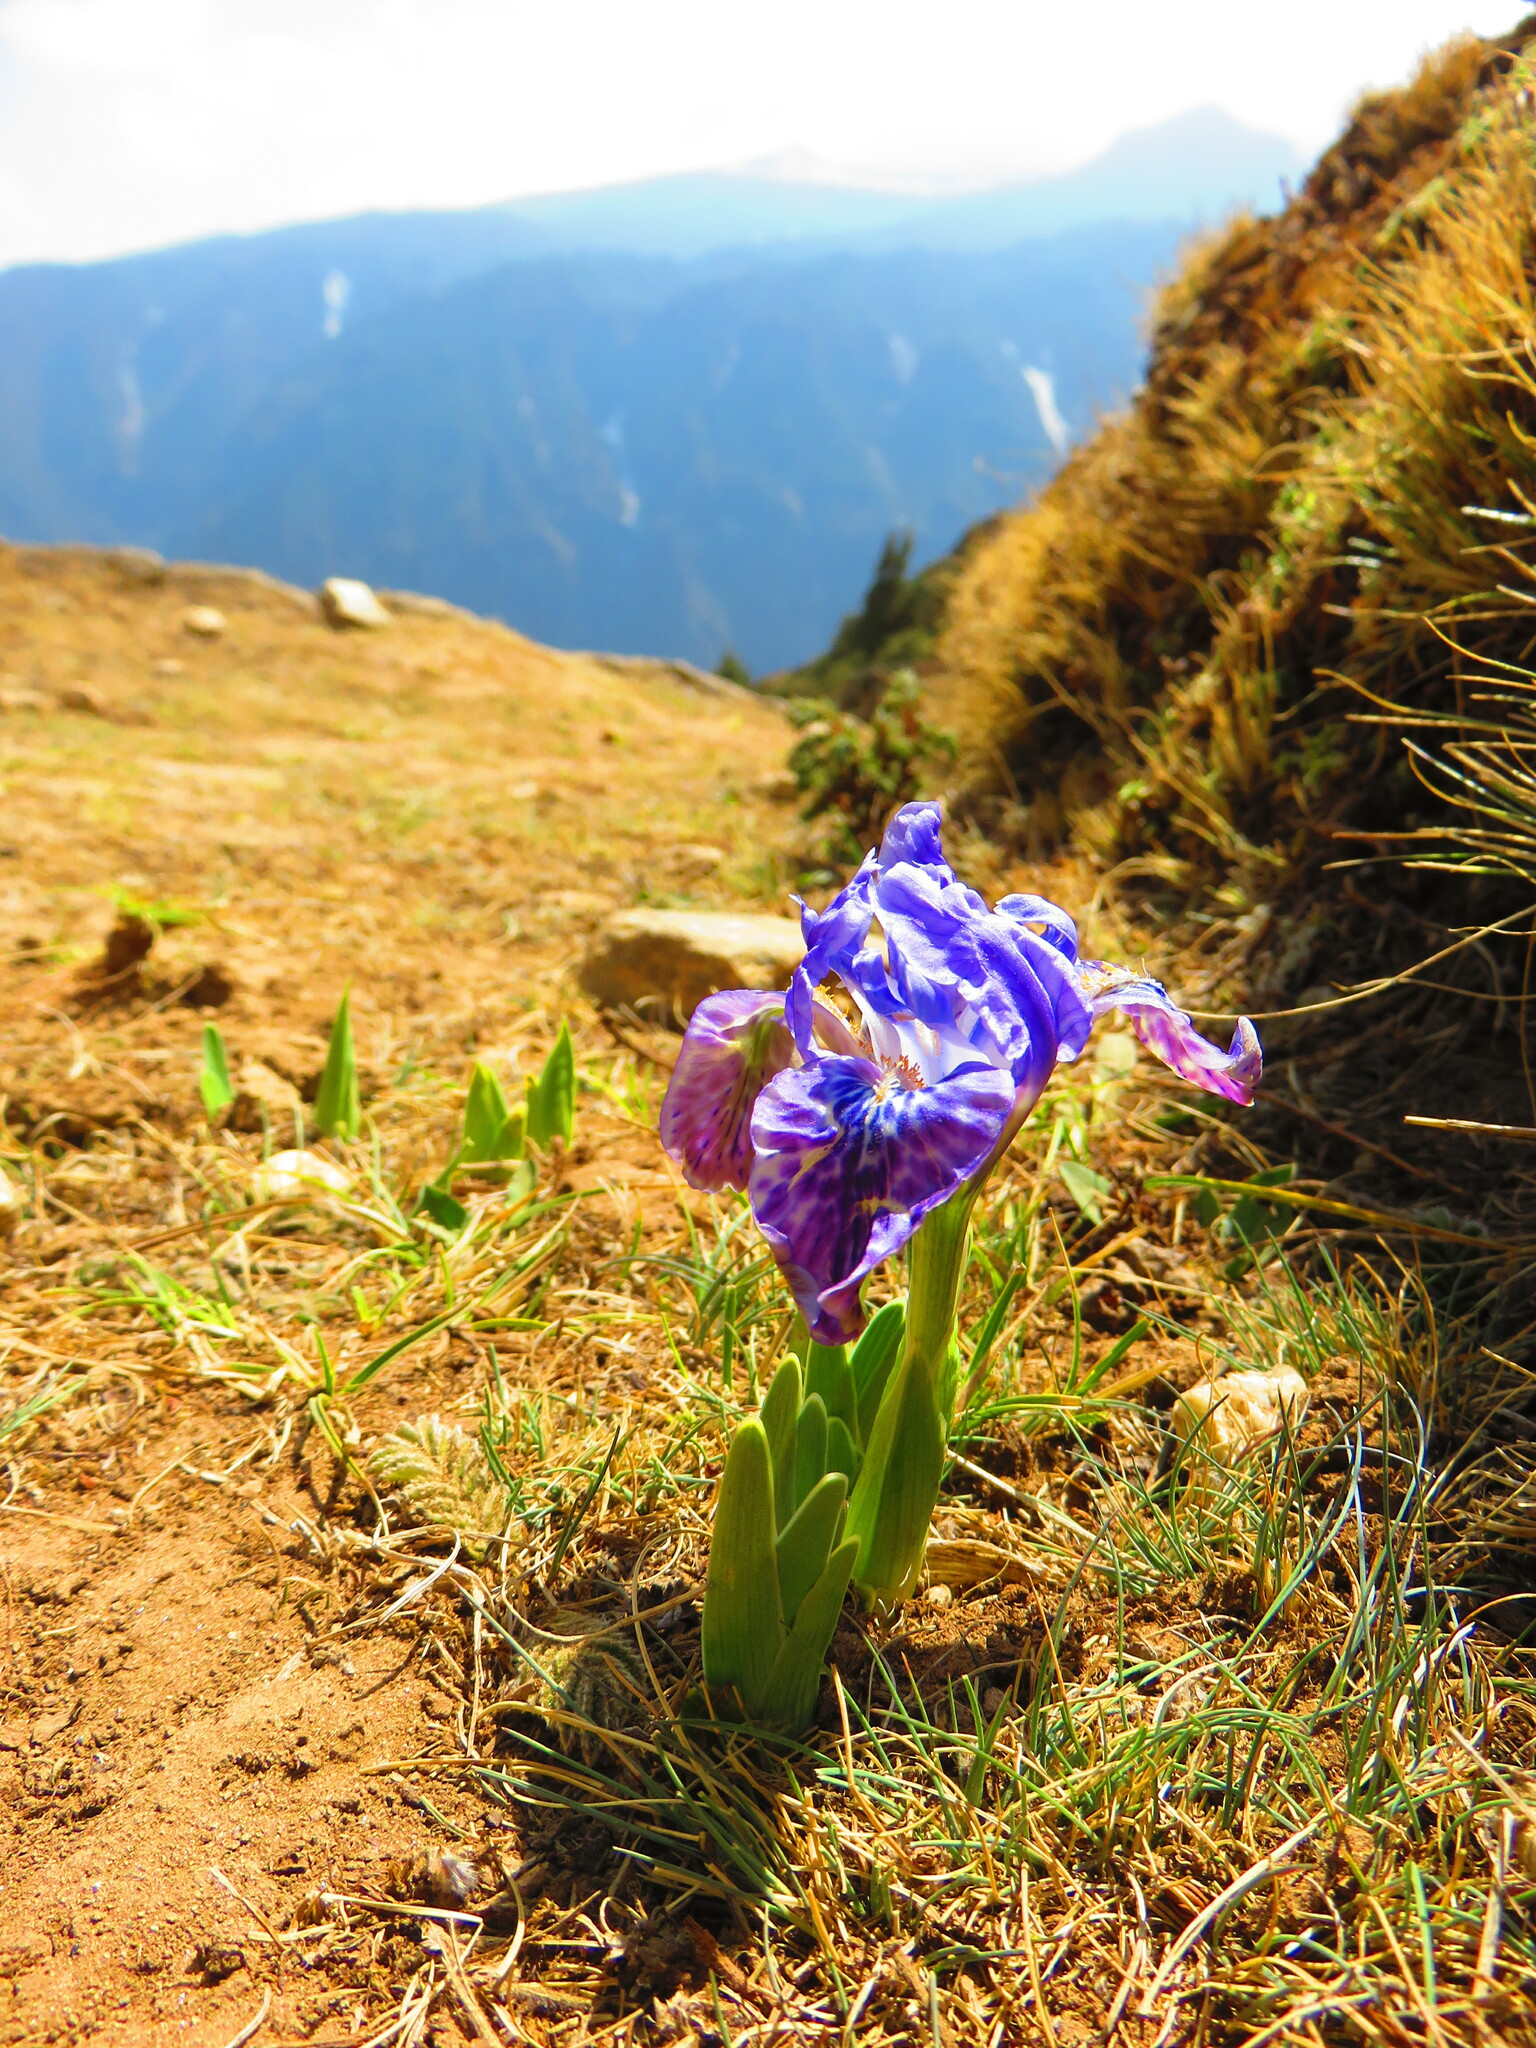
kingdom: Plantae
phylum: Tracheophyta
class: Liliopsida
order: Asparagales
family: Iridaceae
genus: Iris
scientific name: Iris kemaonensis
